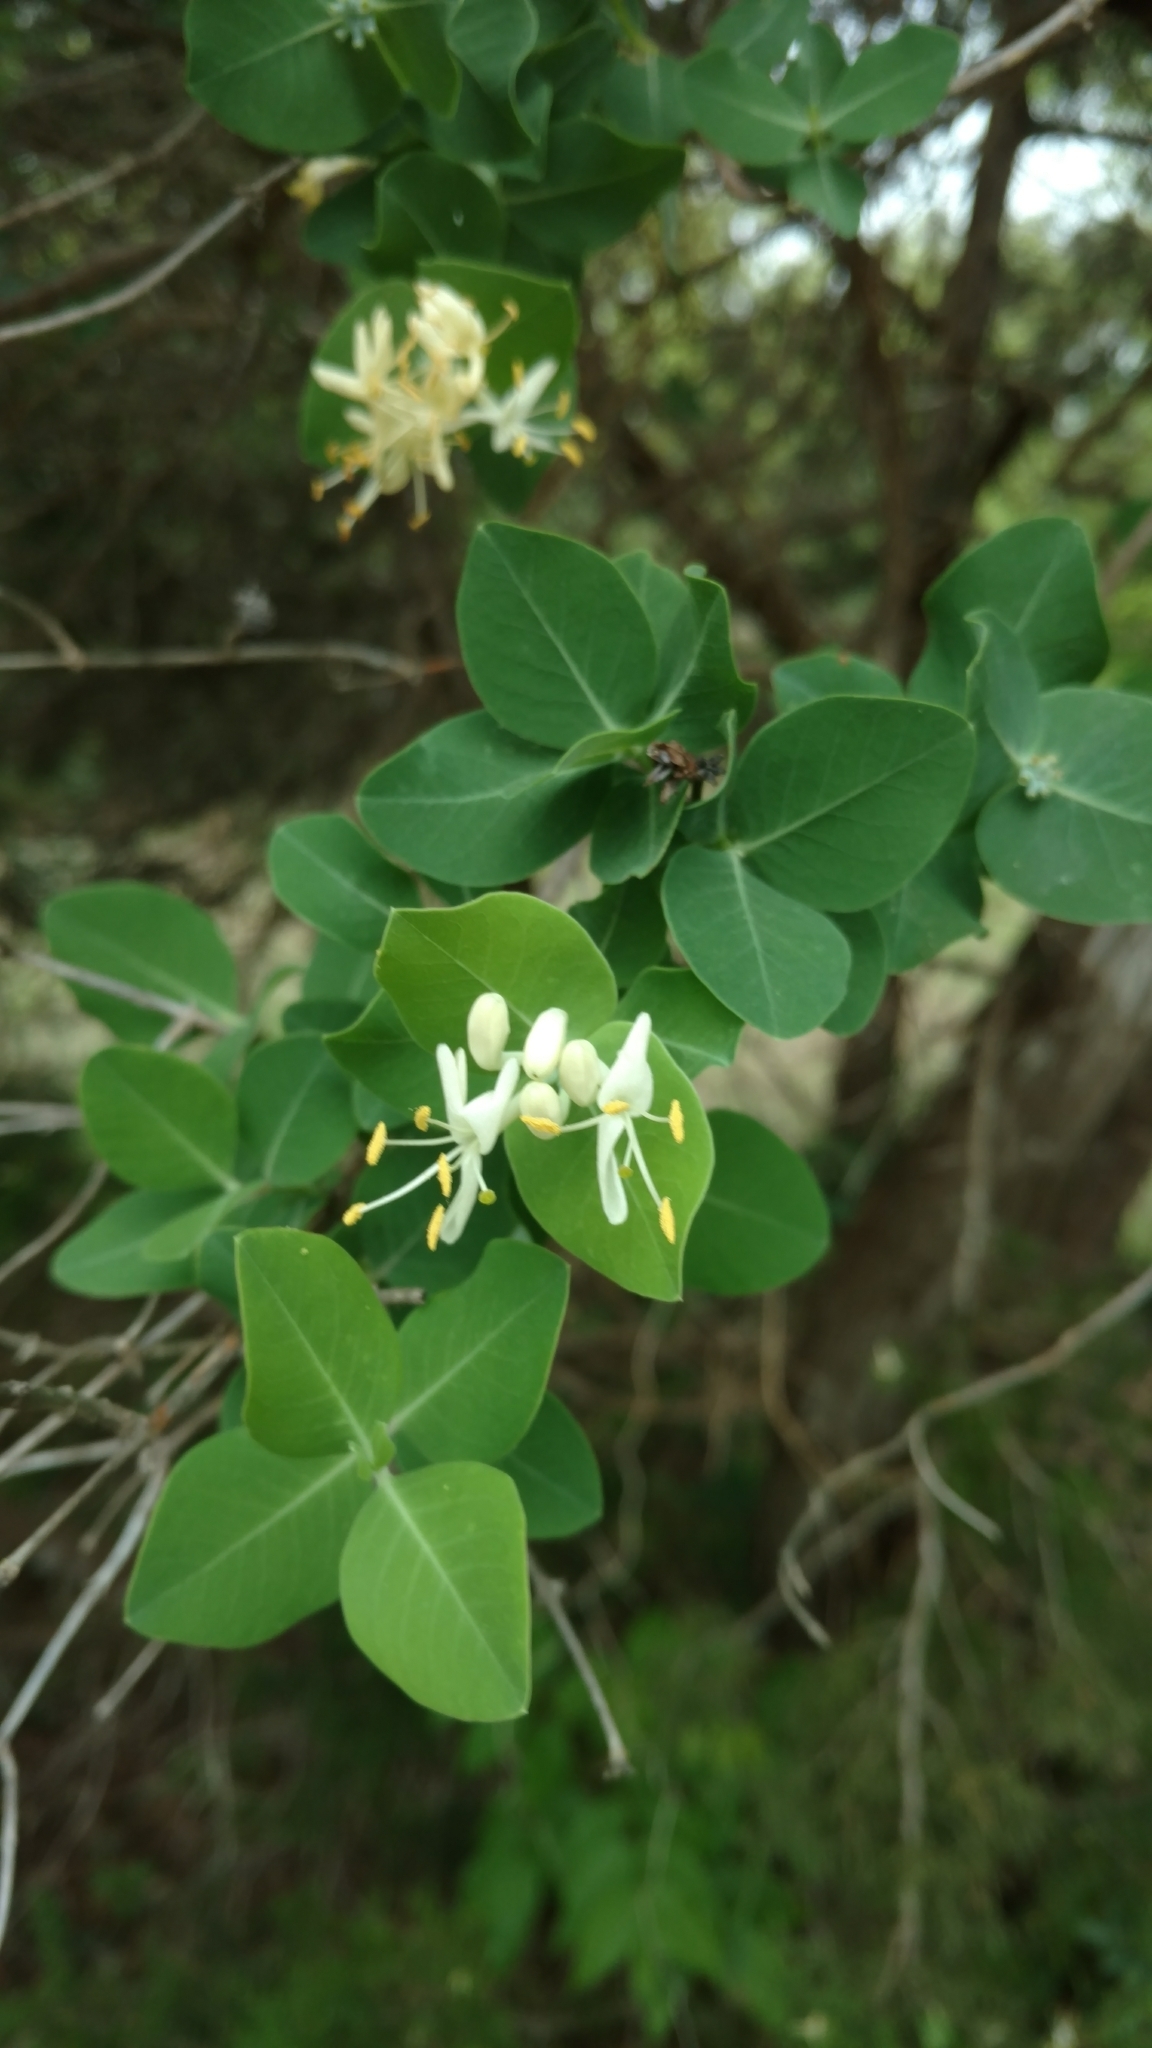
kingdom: Plantae
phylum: Tracheophyta
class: Magnoliopsida
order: Dipsacales
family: Caprifoliaceae
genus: Lonicera
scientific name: Lonicera albiflora
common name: White honeysuckle
